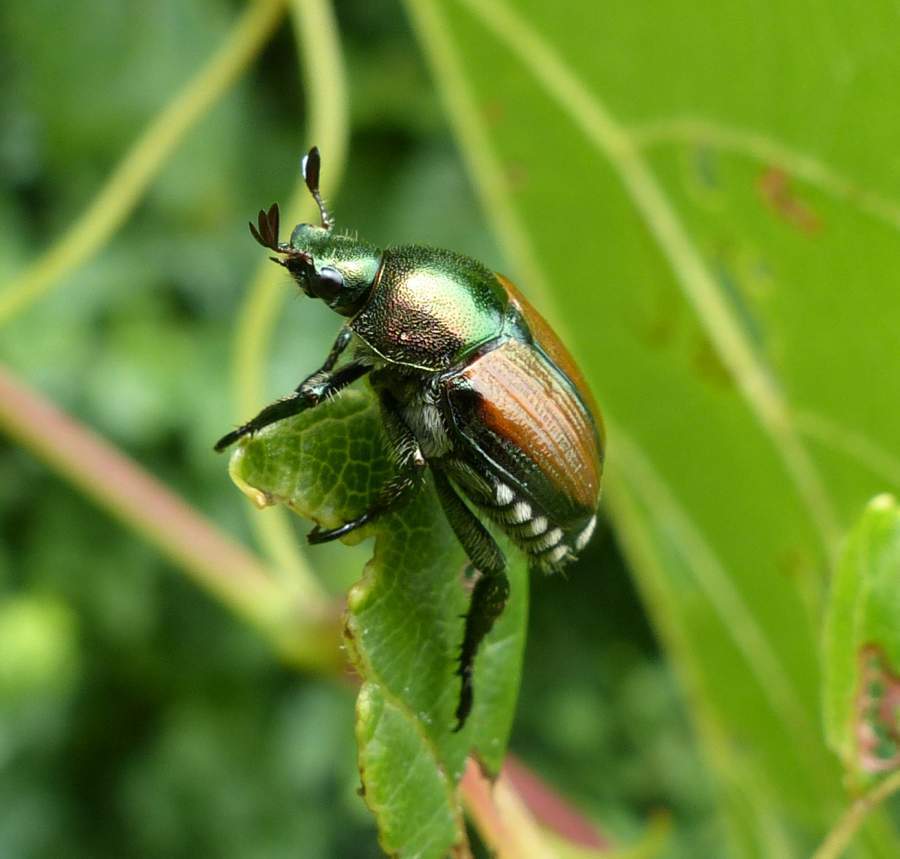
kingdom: Animalia
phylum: Arthropoda
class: Insecta
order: Coleoptera
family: Scarabaeidae
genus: Popillia
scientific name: Popillia japonica
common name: Japanese beetle
